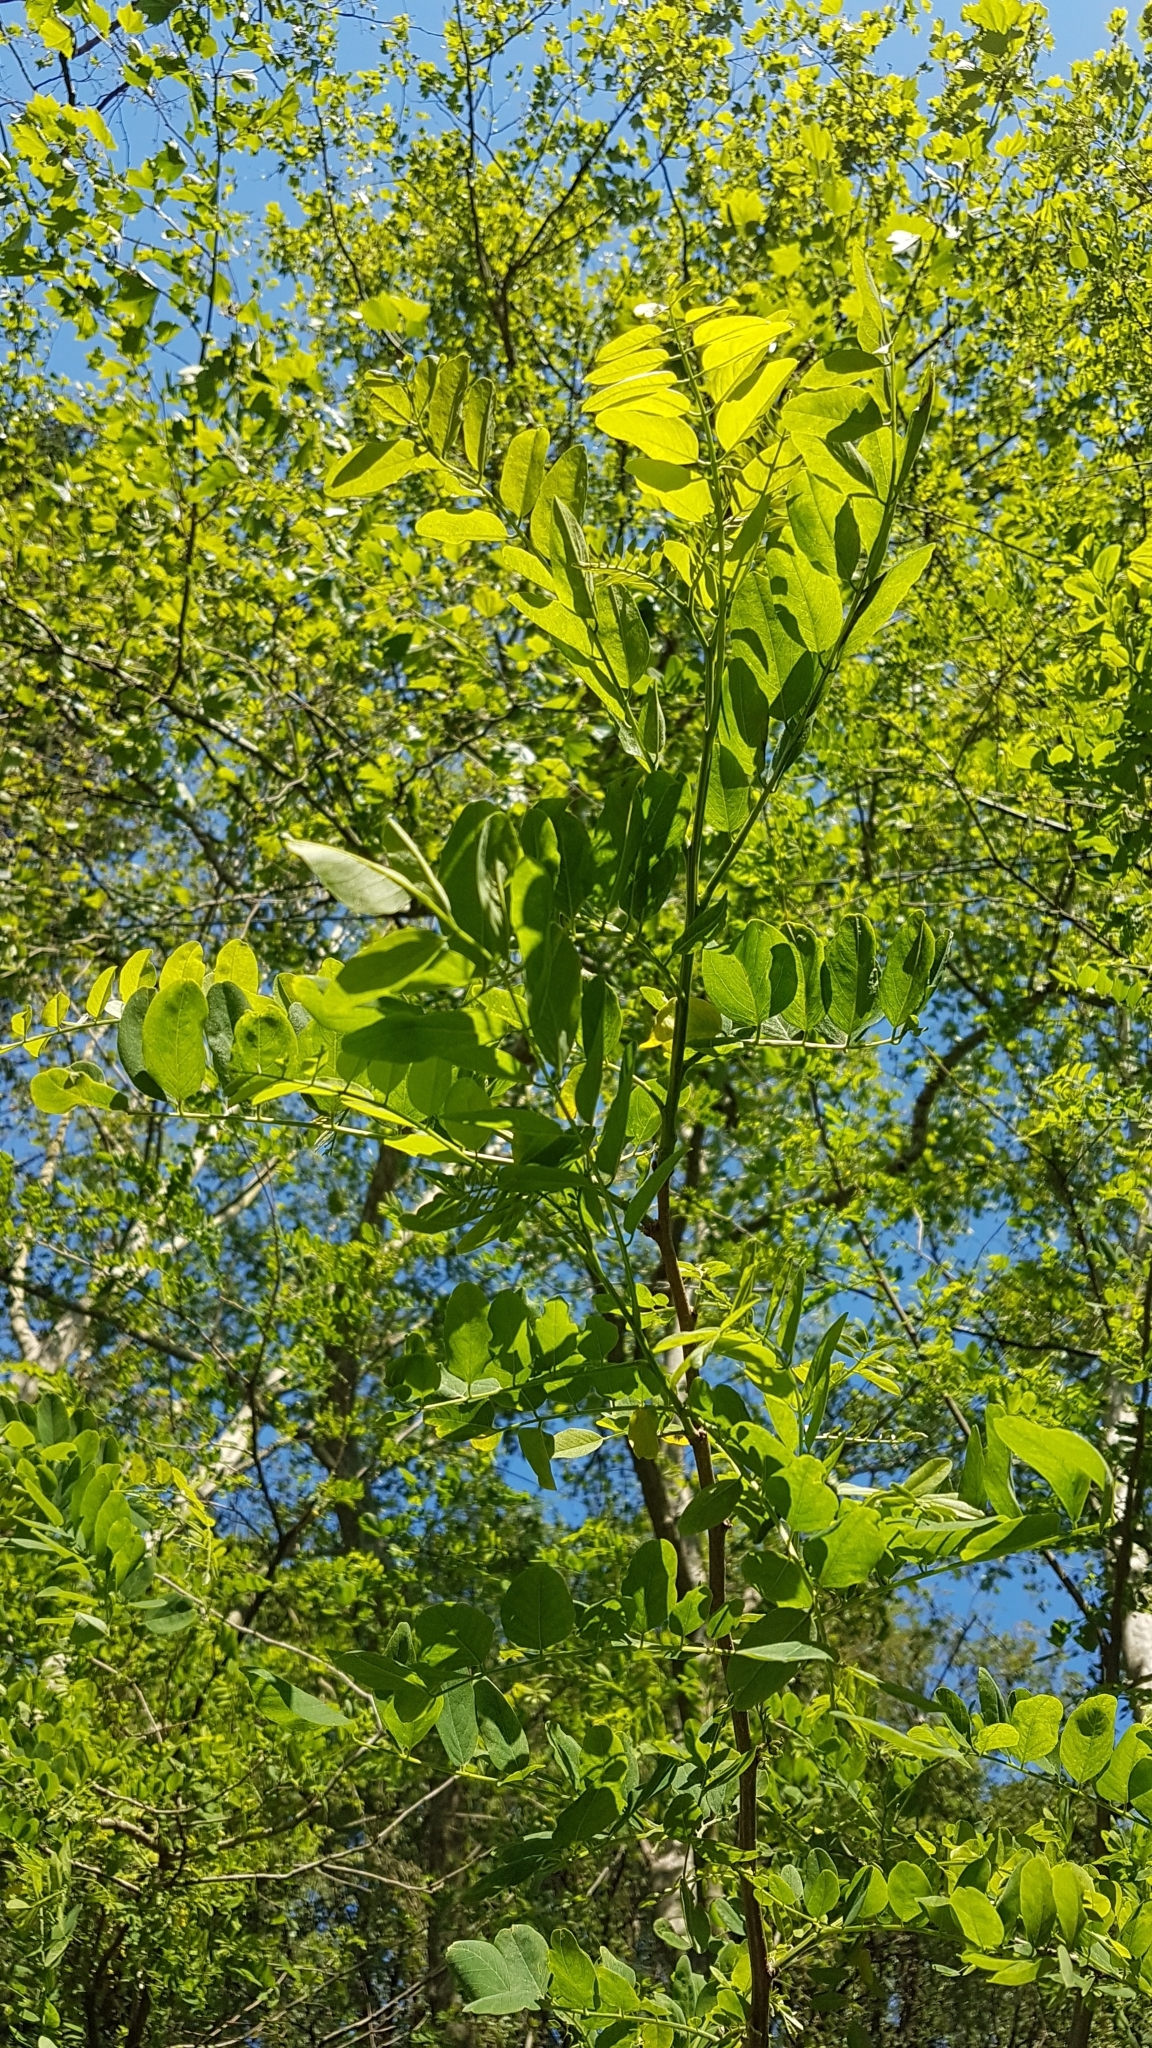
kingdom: Plantae
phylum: Tracheophyta
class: Magnoliopsida
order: Fabales
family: Fabaceae
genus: Robinia
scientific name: Robinia pseudoacacia
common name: Black locust
